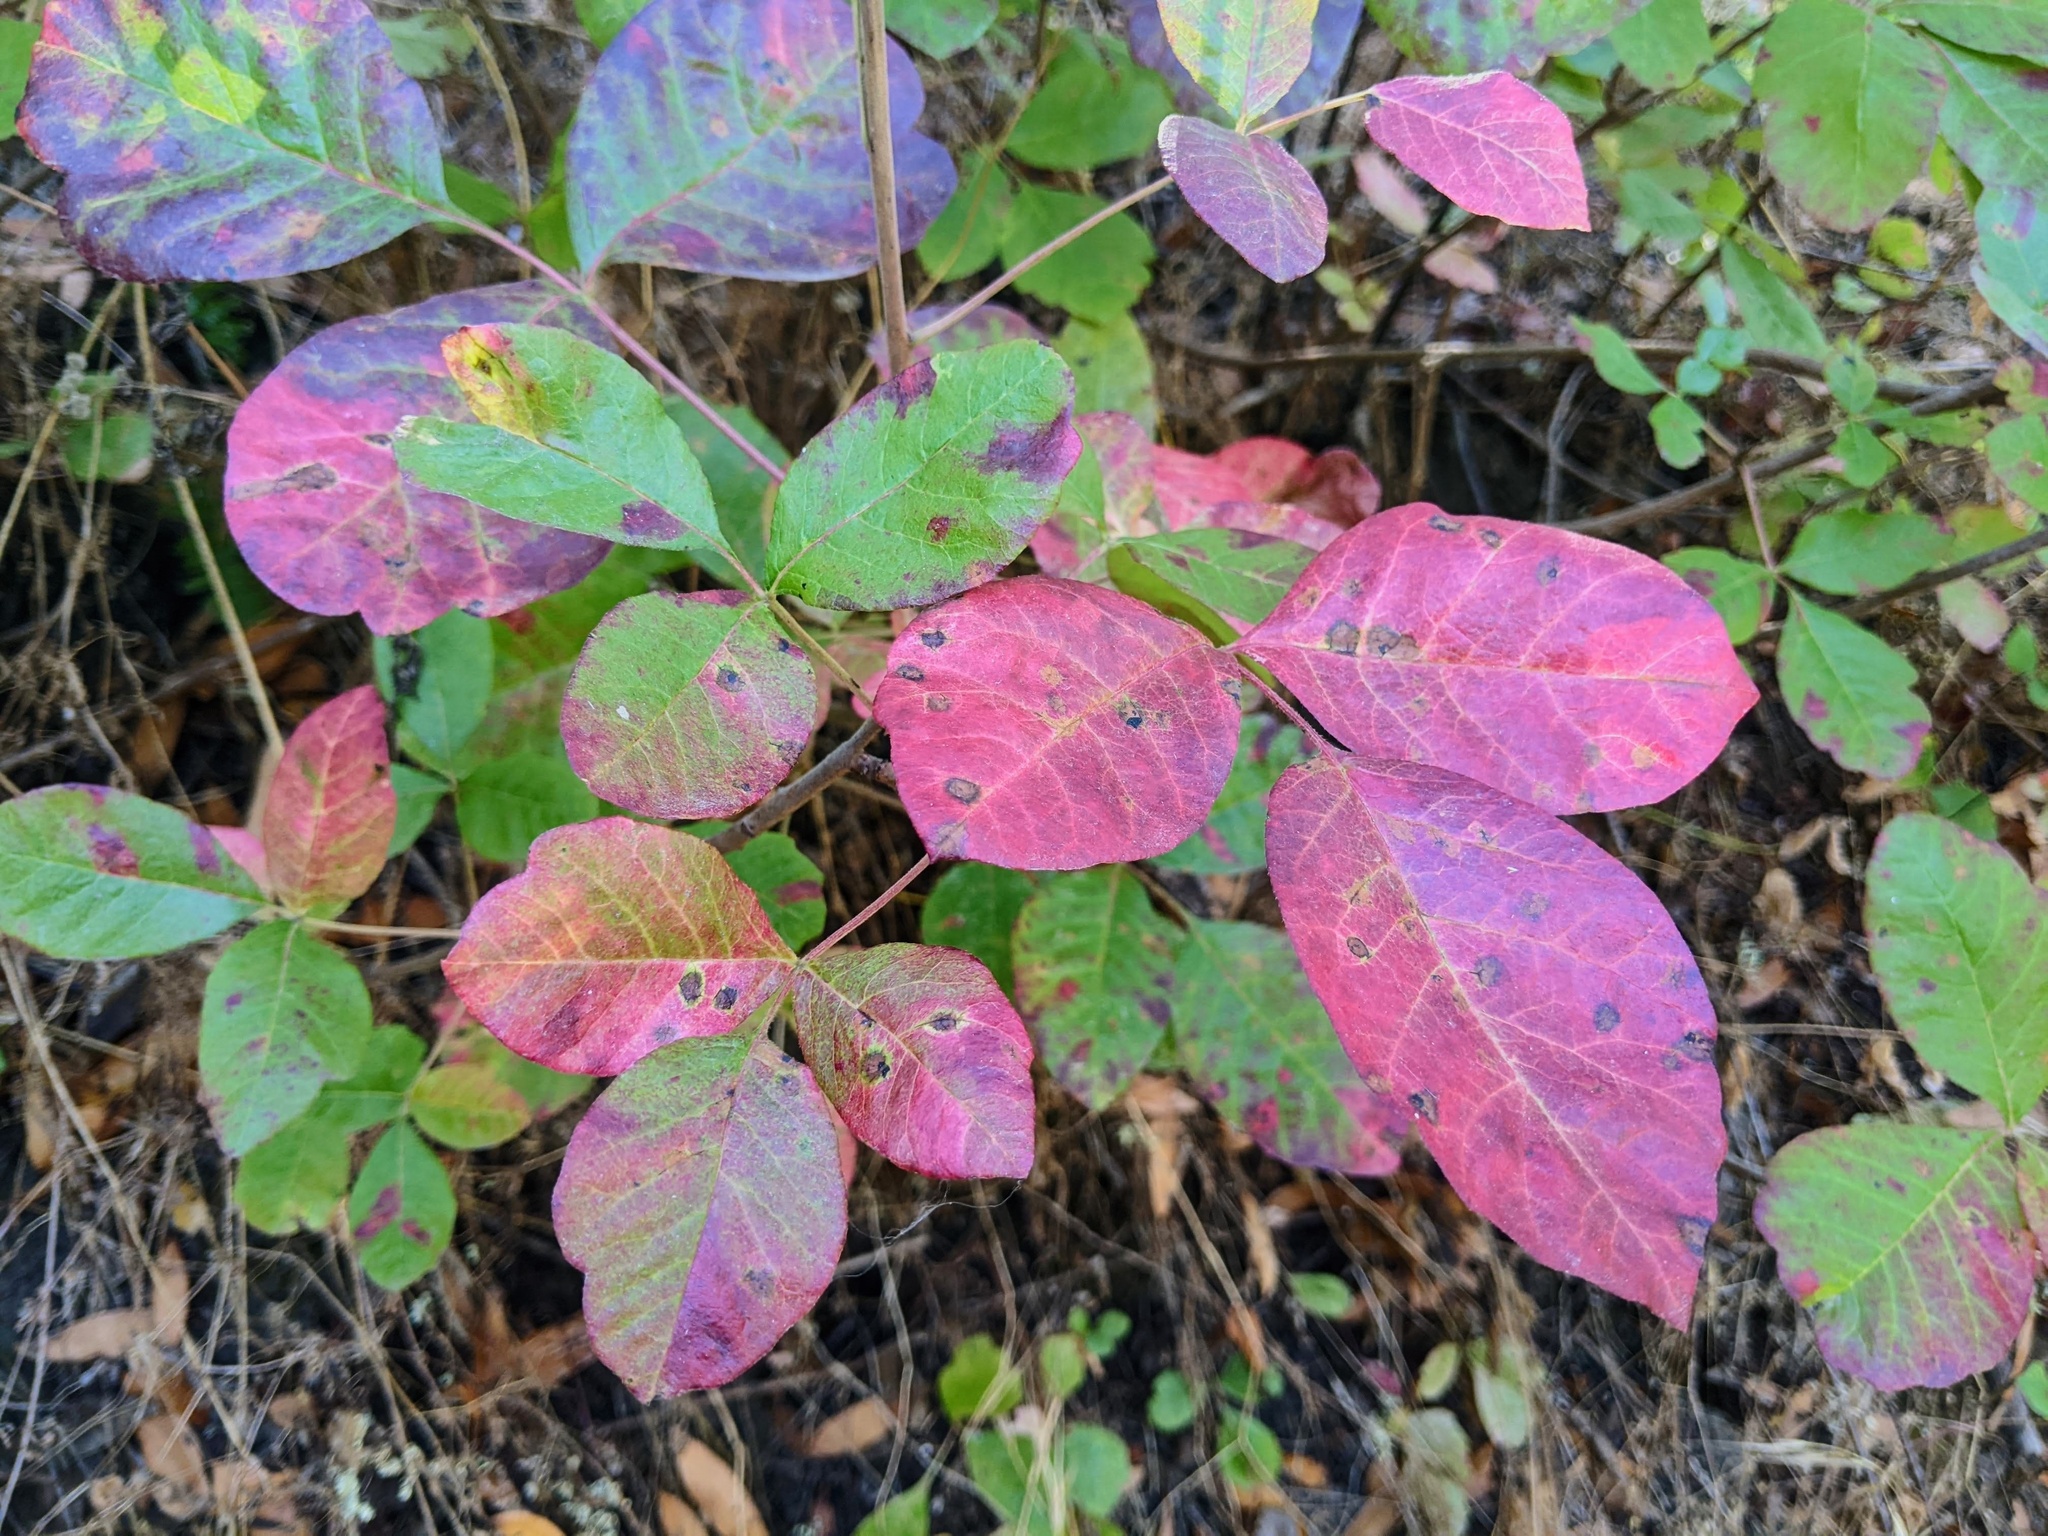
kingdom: Plantae
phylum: Tracheophyta
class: Magnoliopsida
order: Sapindales
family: Anacardiaceae
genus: Toxicodendron
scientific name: Toxicodendron diversilobum
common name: Pacific poison-oak
